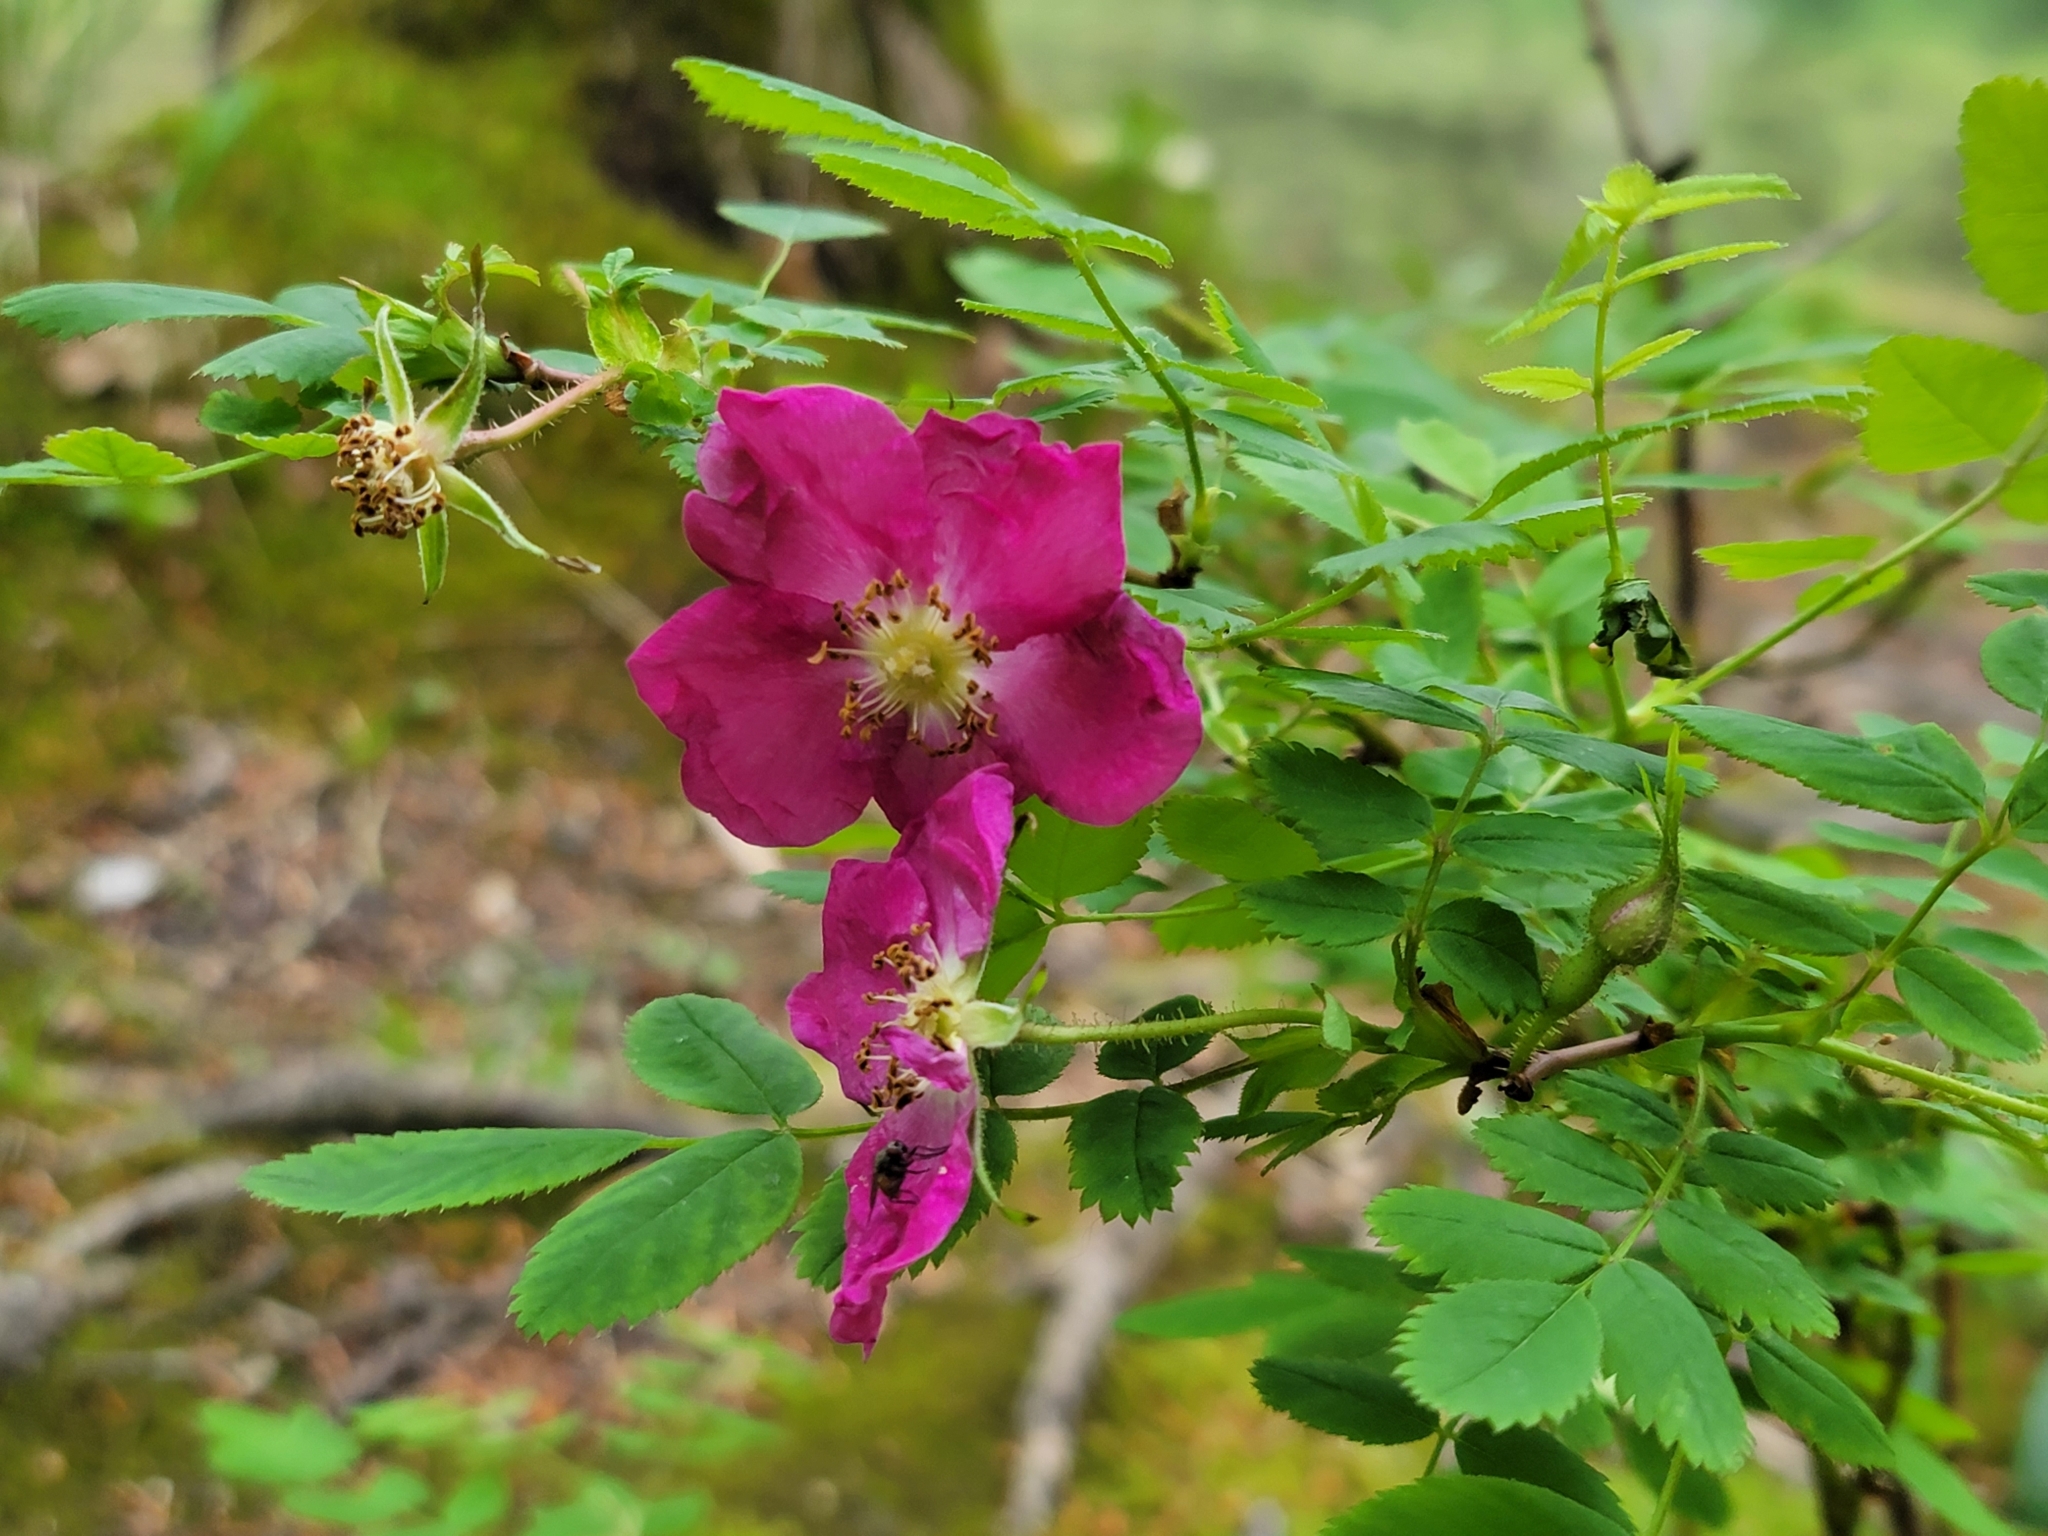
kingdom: Plantae
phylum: Tracheophyta
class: Magnoliopsida
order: Rosales
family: Rosaceae
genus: Rosa
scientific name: Rosa pendulina
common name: Alpine rose
